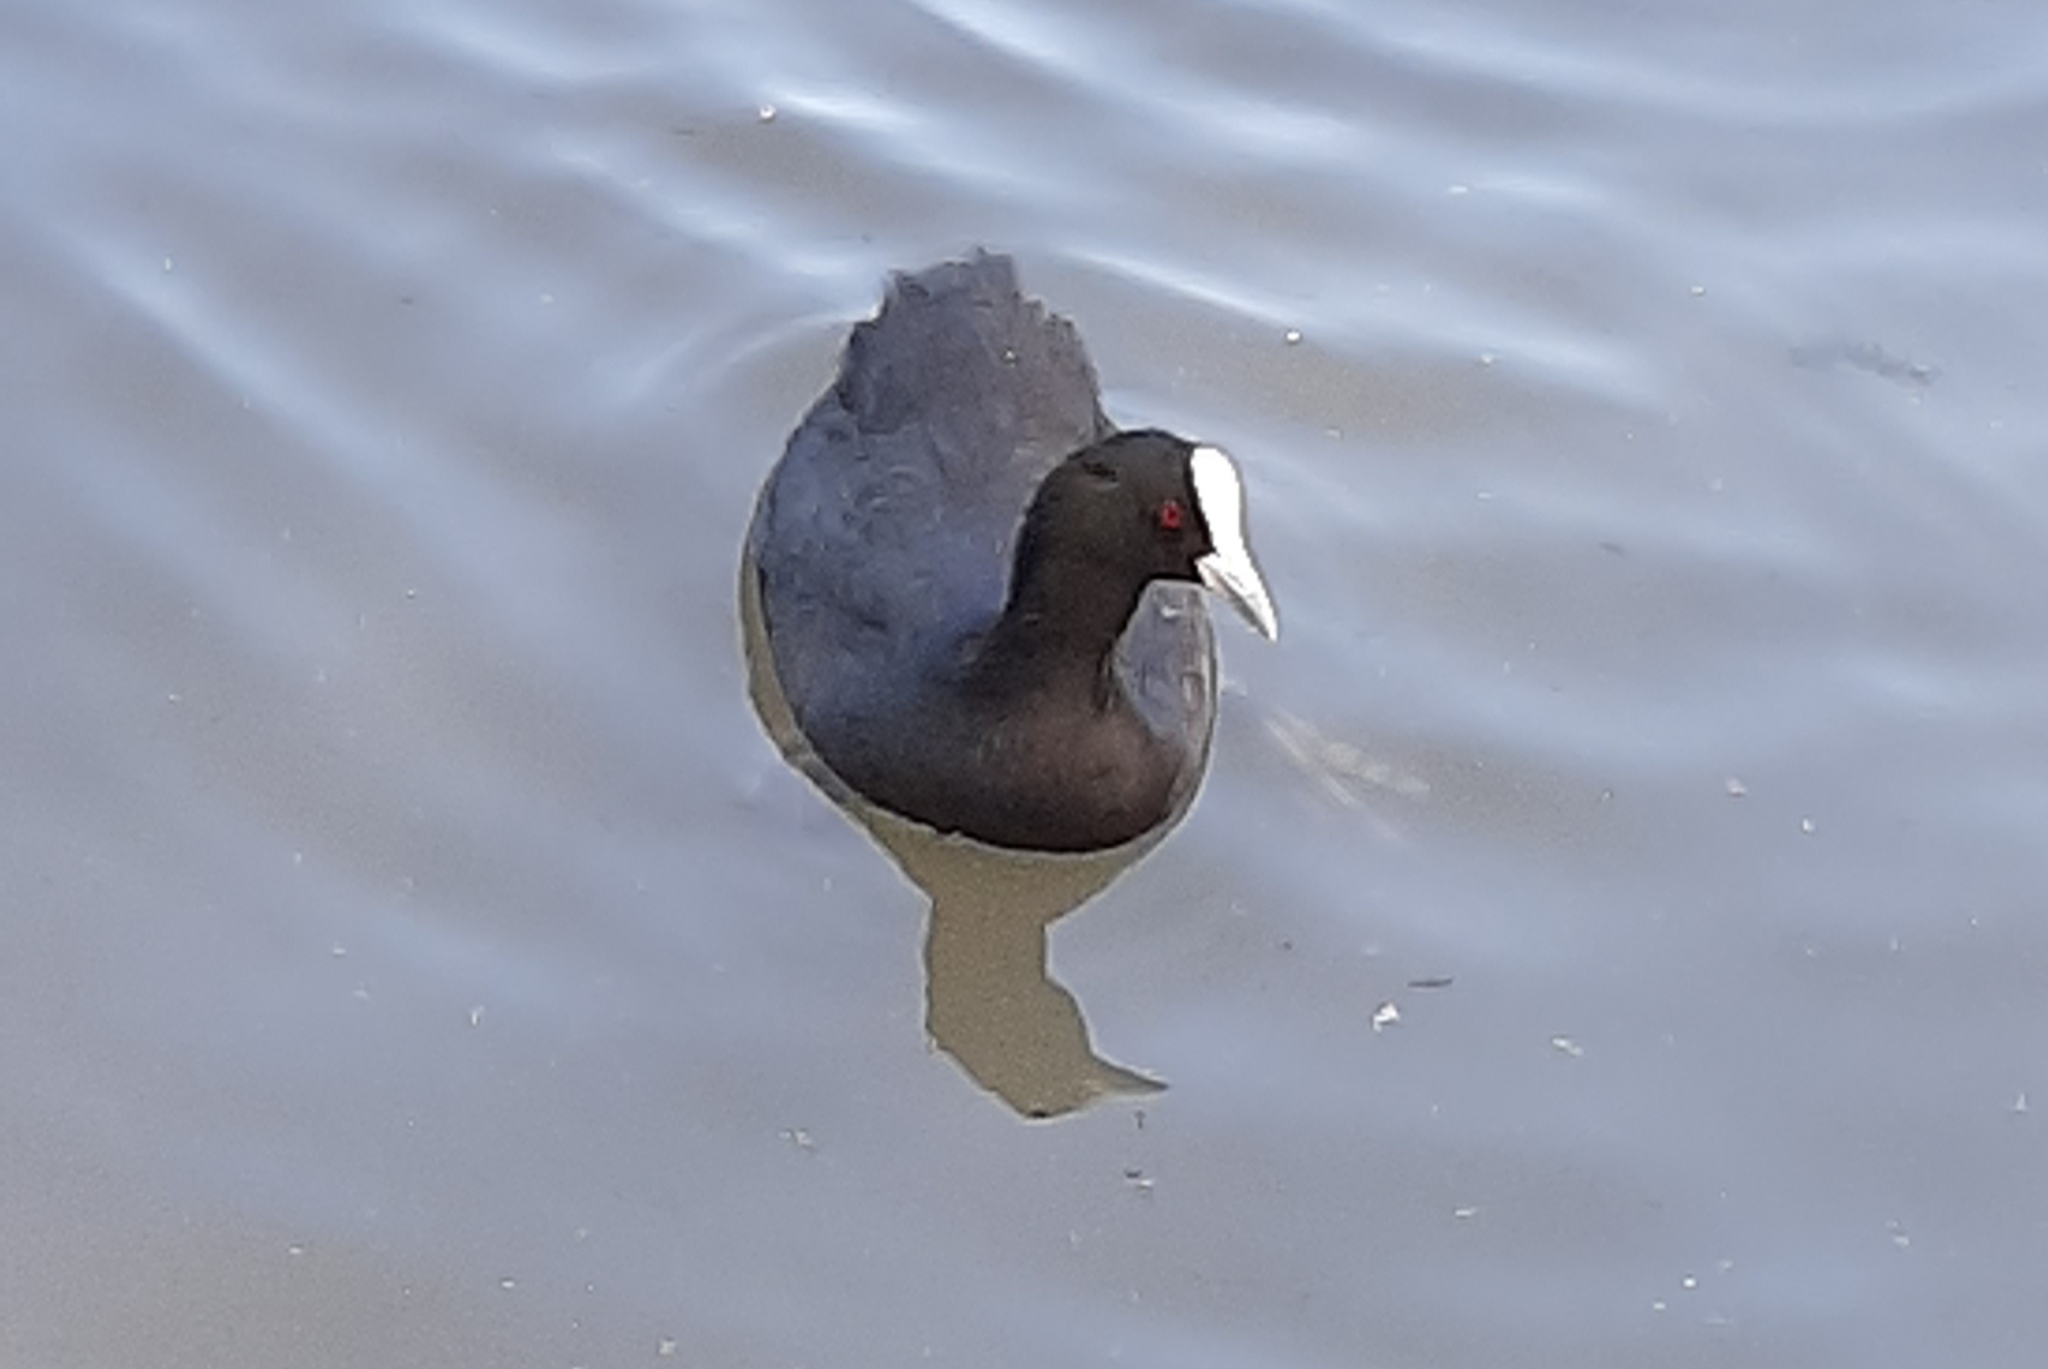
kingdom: Animalia
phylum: Chordata
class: Aves
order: Gruiformes
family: Rallidae
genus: Fulica
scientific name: Fulica atra
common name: Eurasian coot
